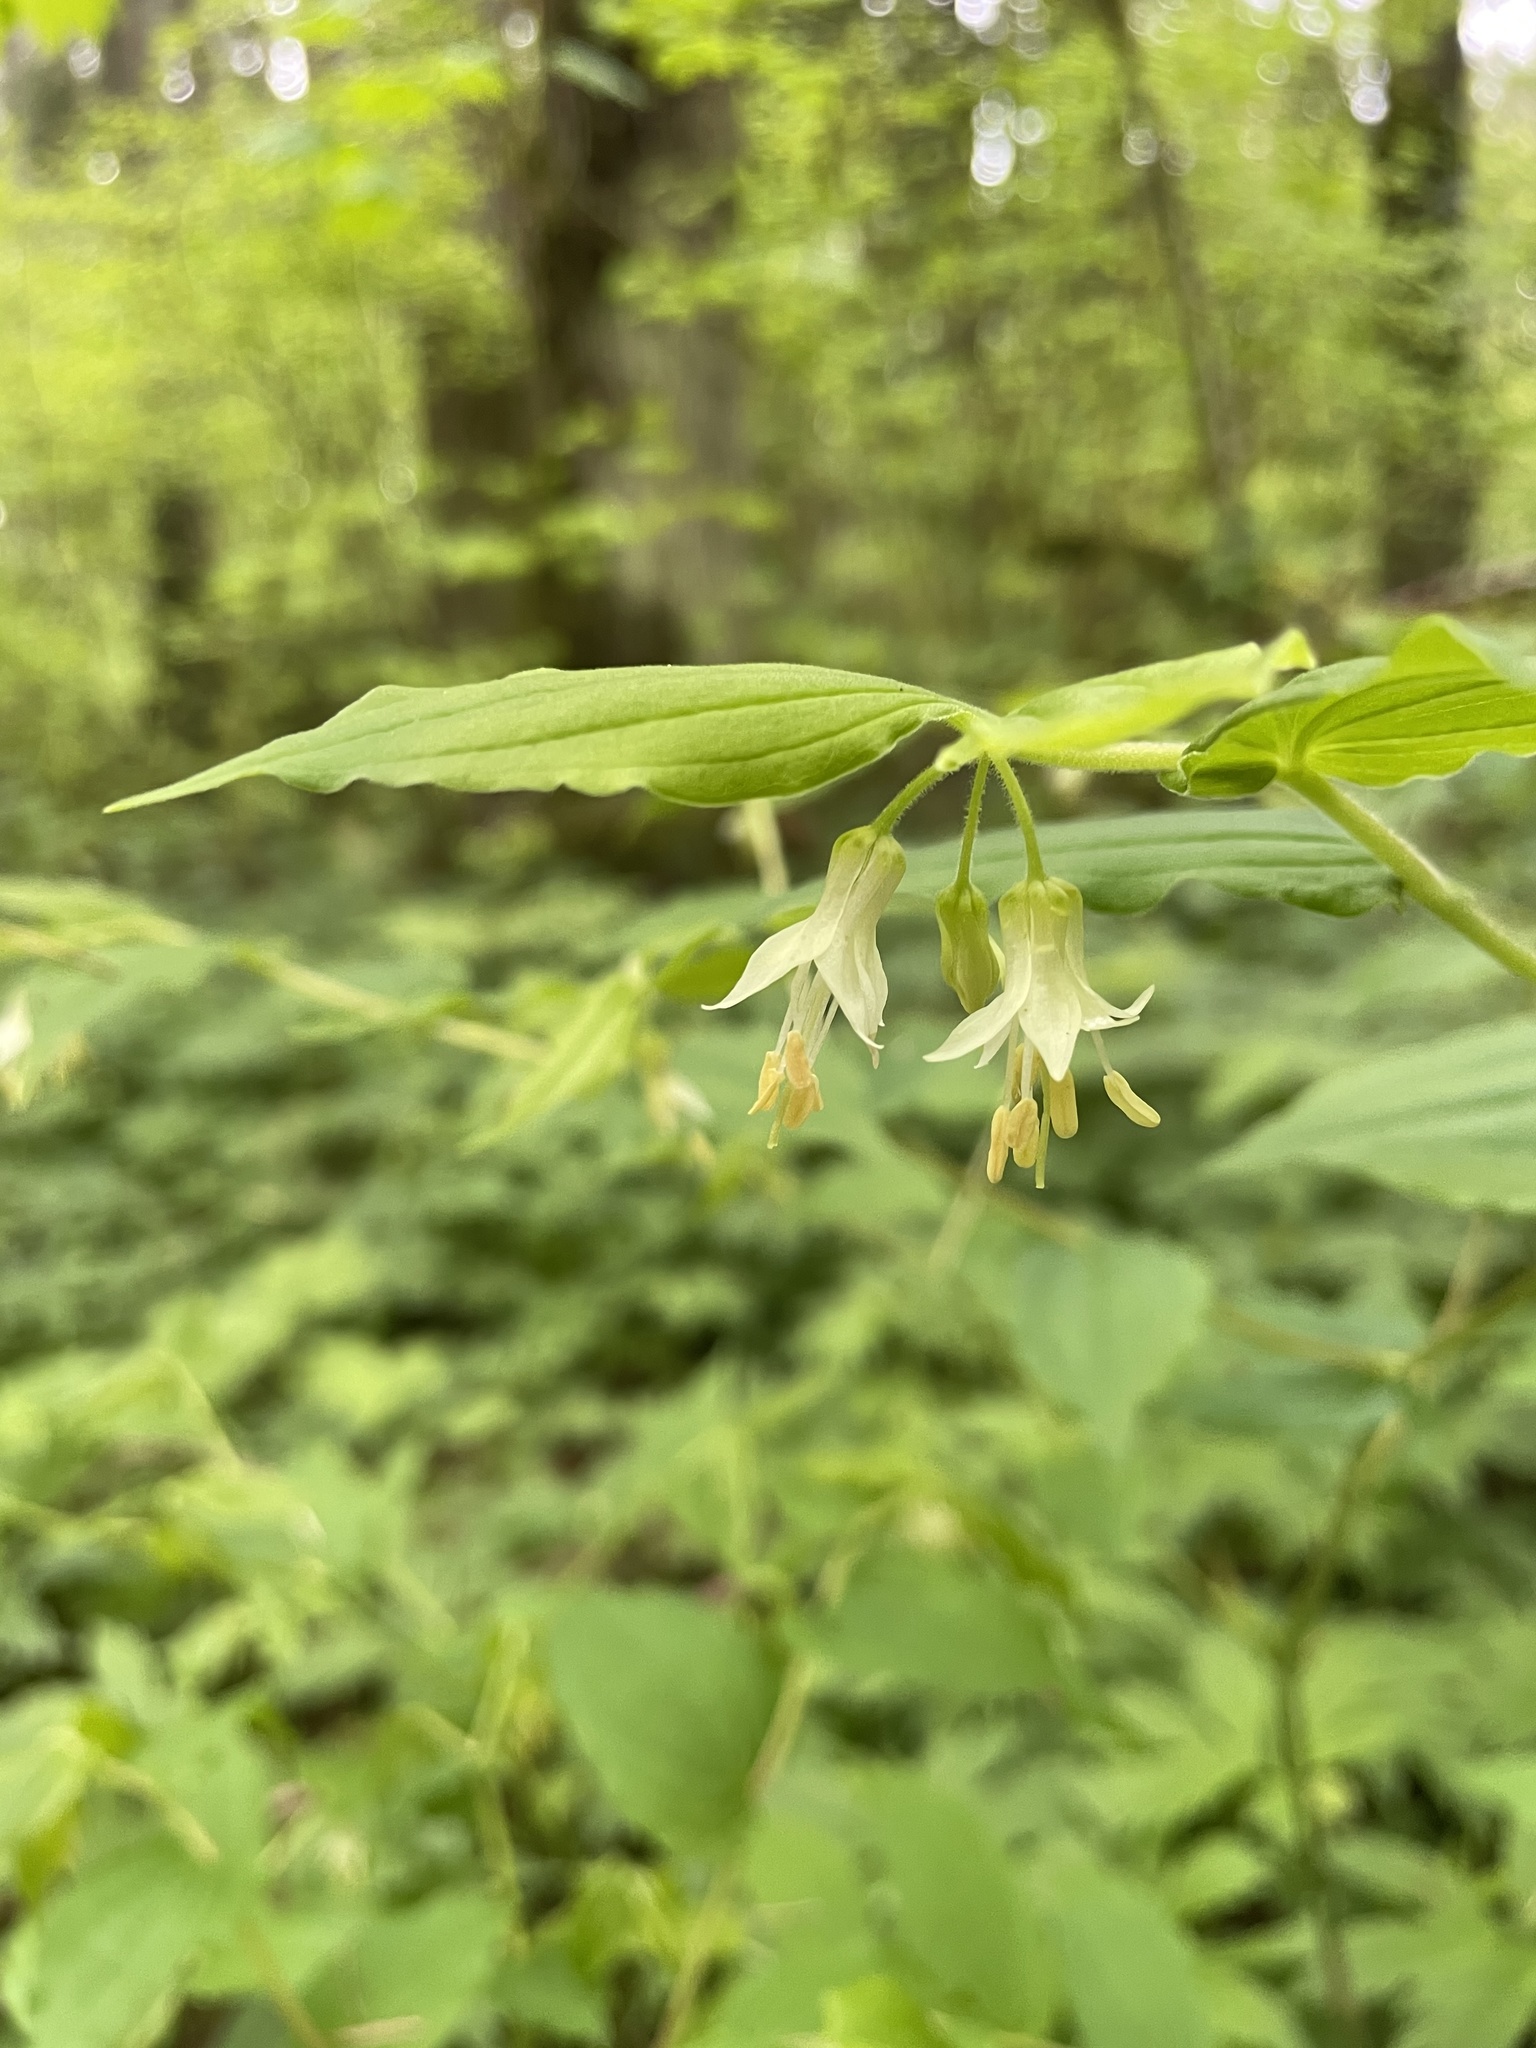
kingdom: Plantae
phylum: Tracheophyta
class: Liliopsida
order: Liliales
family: Liliaceae
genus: Prosartes
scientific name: Prosartes hookeri
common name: Fairy-bells
